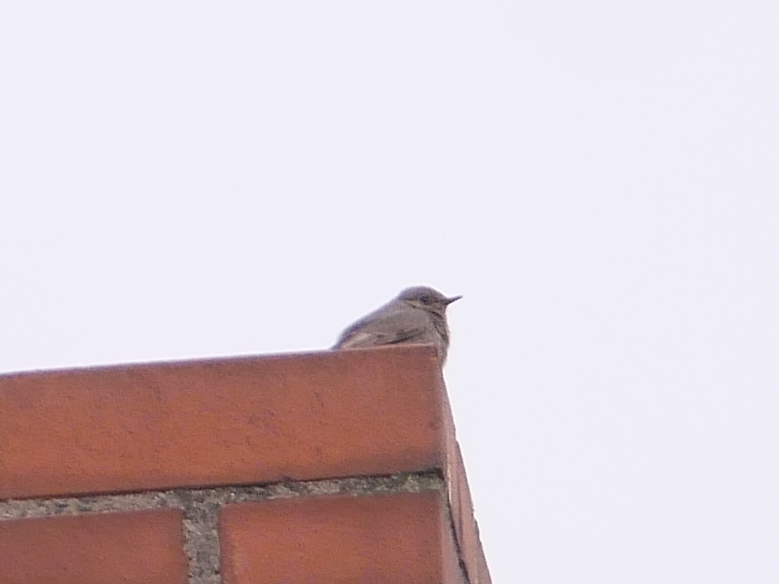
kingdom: Animalia
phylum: Chordata
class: Aves
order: Passeriformes
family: Muscicapidae
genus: Phoenicurus
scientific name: Phoenicurus ochruros
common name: Black redstart
